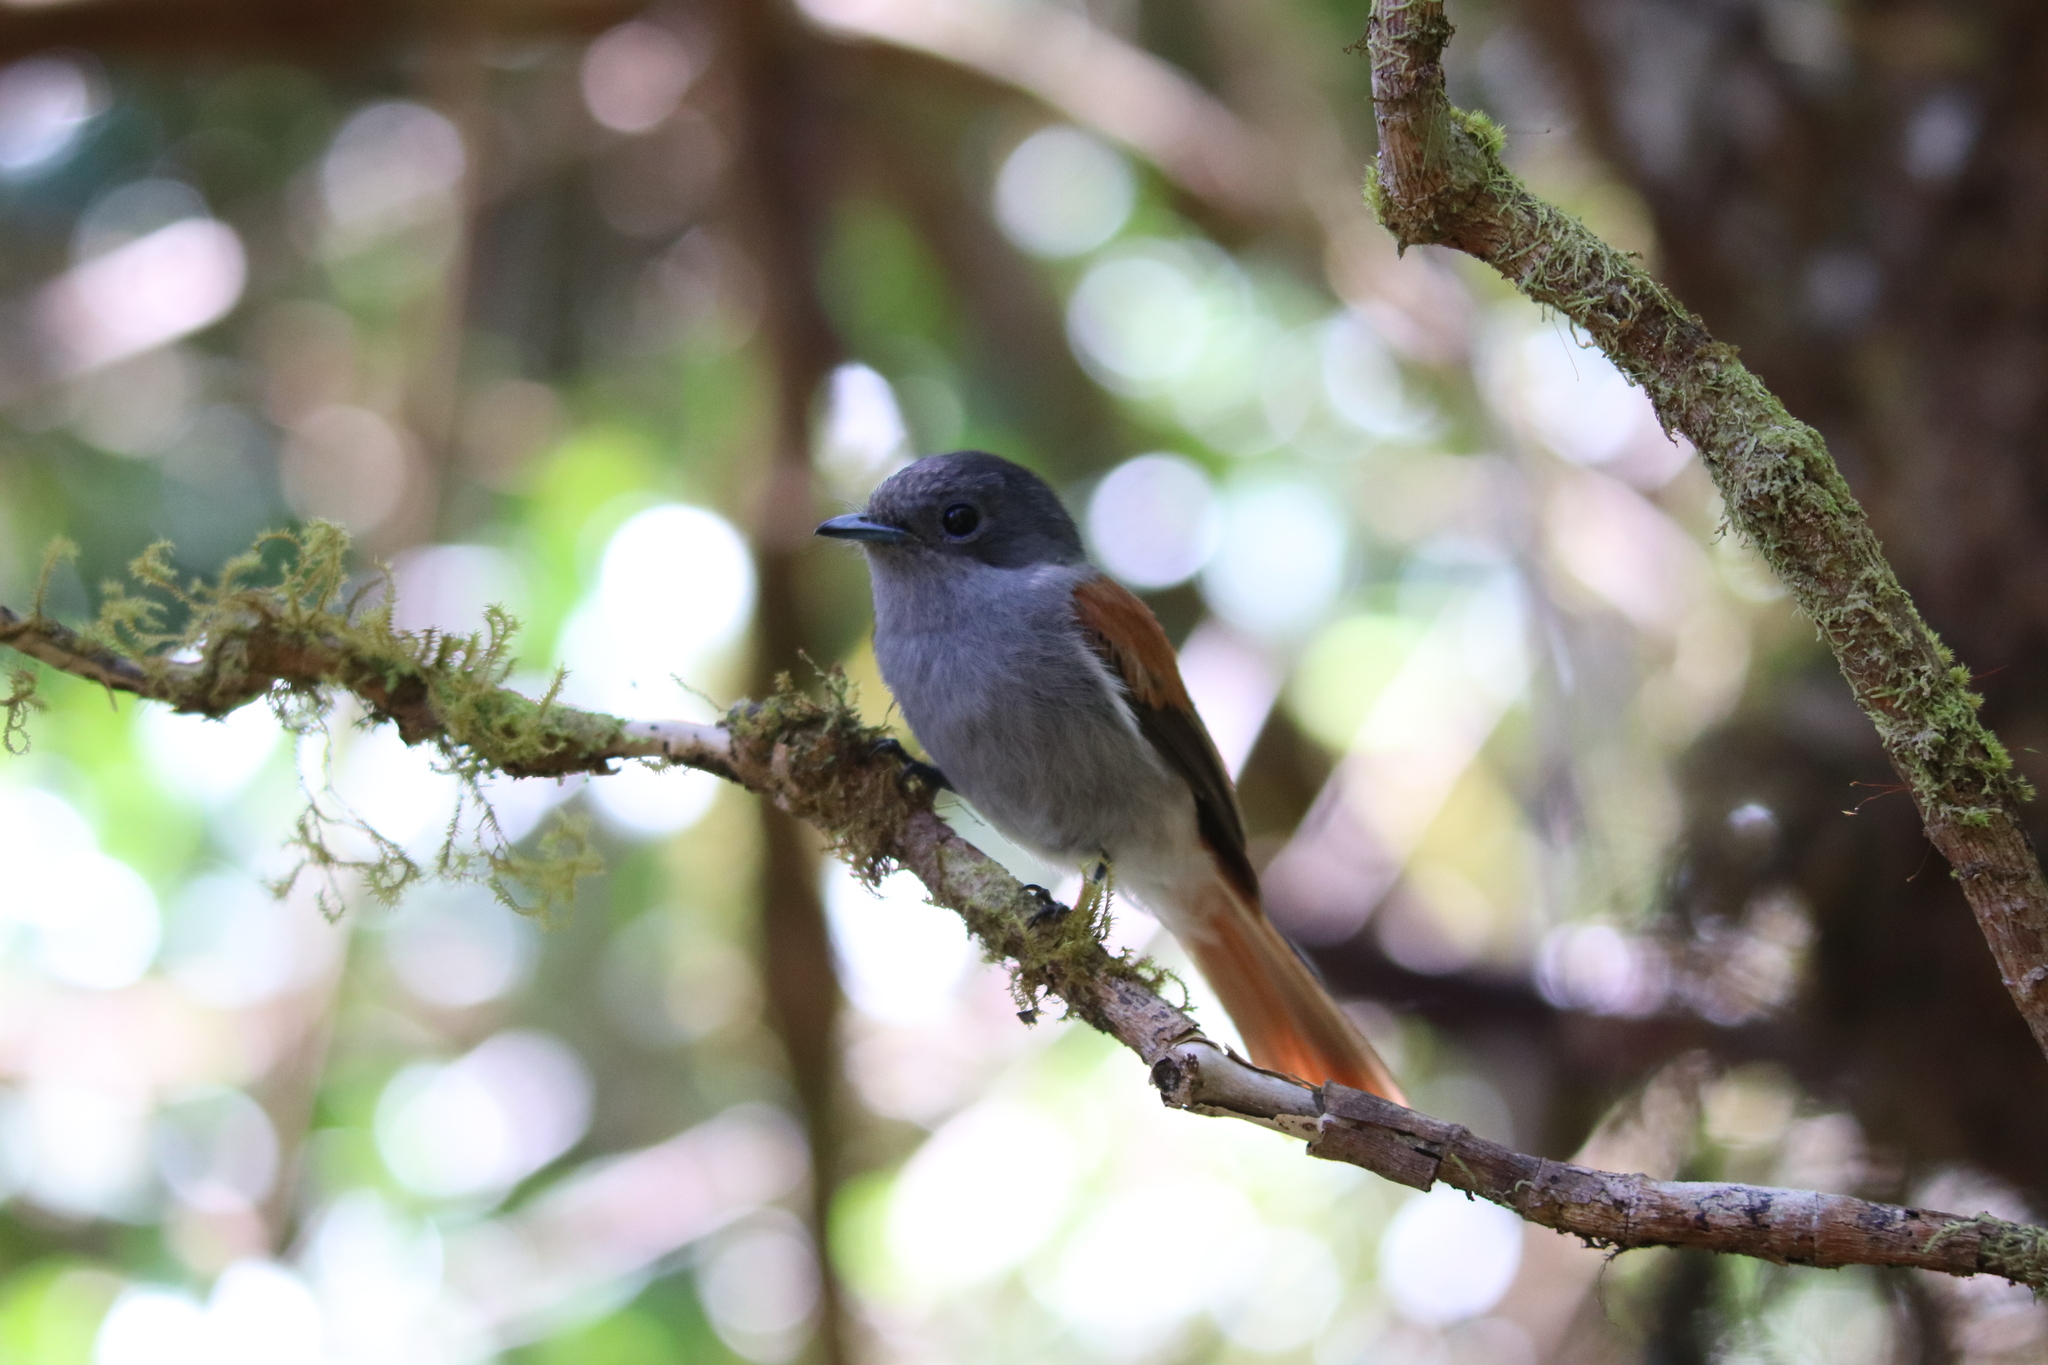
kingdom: Animalia
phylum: Chordata
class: Aves
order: Passeriformes
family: Monarchidae
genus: Terpsiphone
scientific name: Terpsiphone bourbonnensis
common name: Mascarene paradise flycatcher
